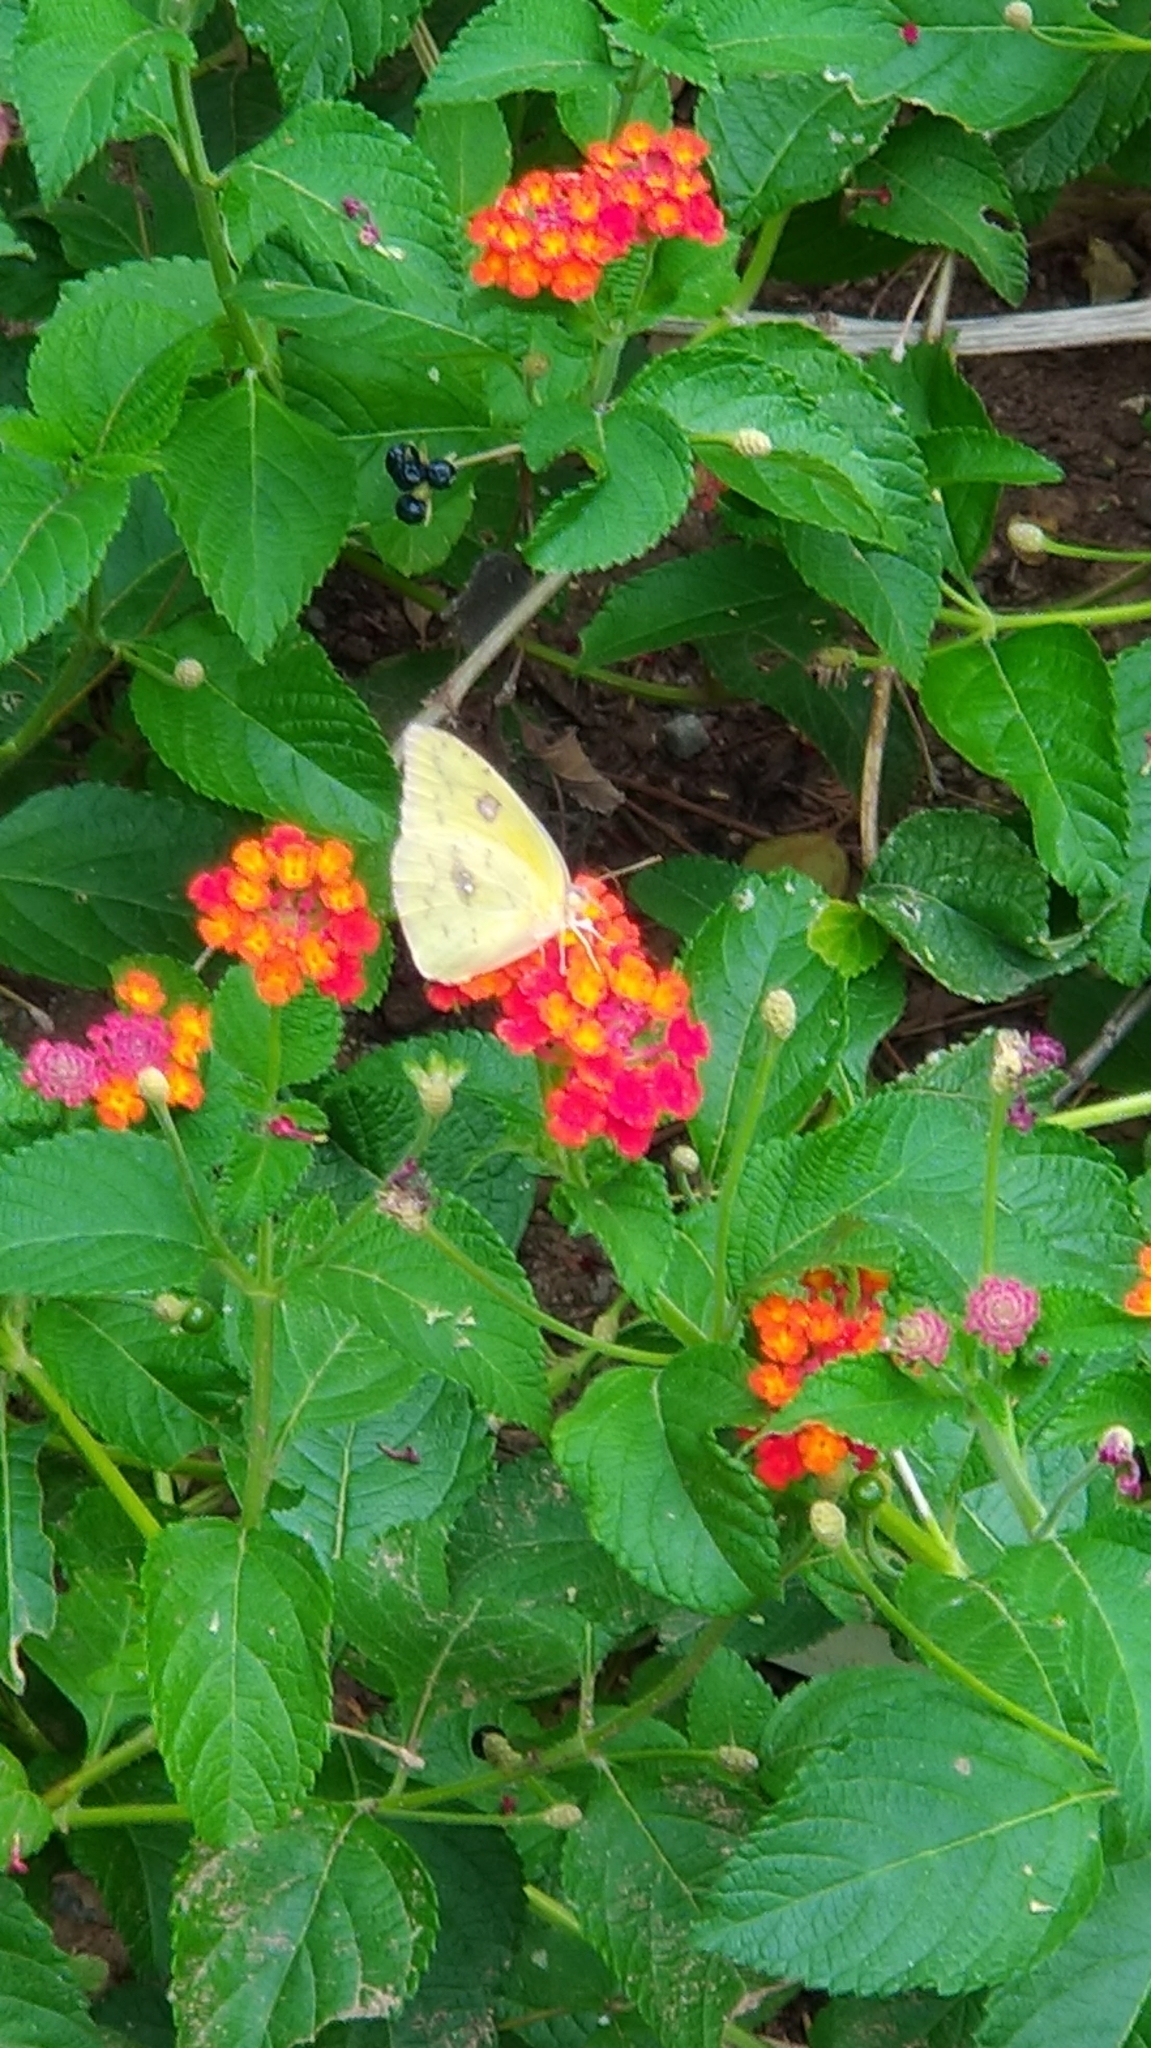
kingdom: Animalia
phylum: Arthropoda
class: Insecta
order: Lepidoptera
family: Pieridae
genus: Colias
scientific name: Colias eurytheme
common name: Alfalfa butterfly
